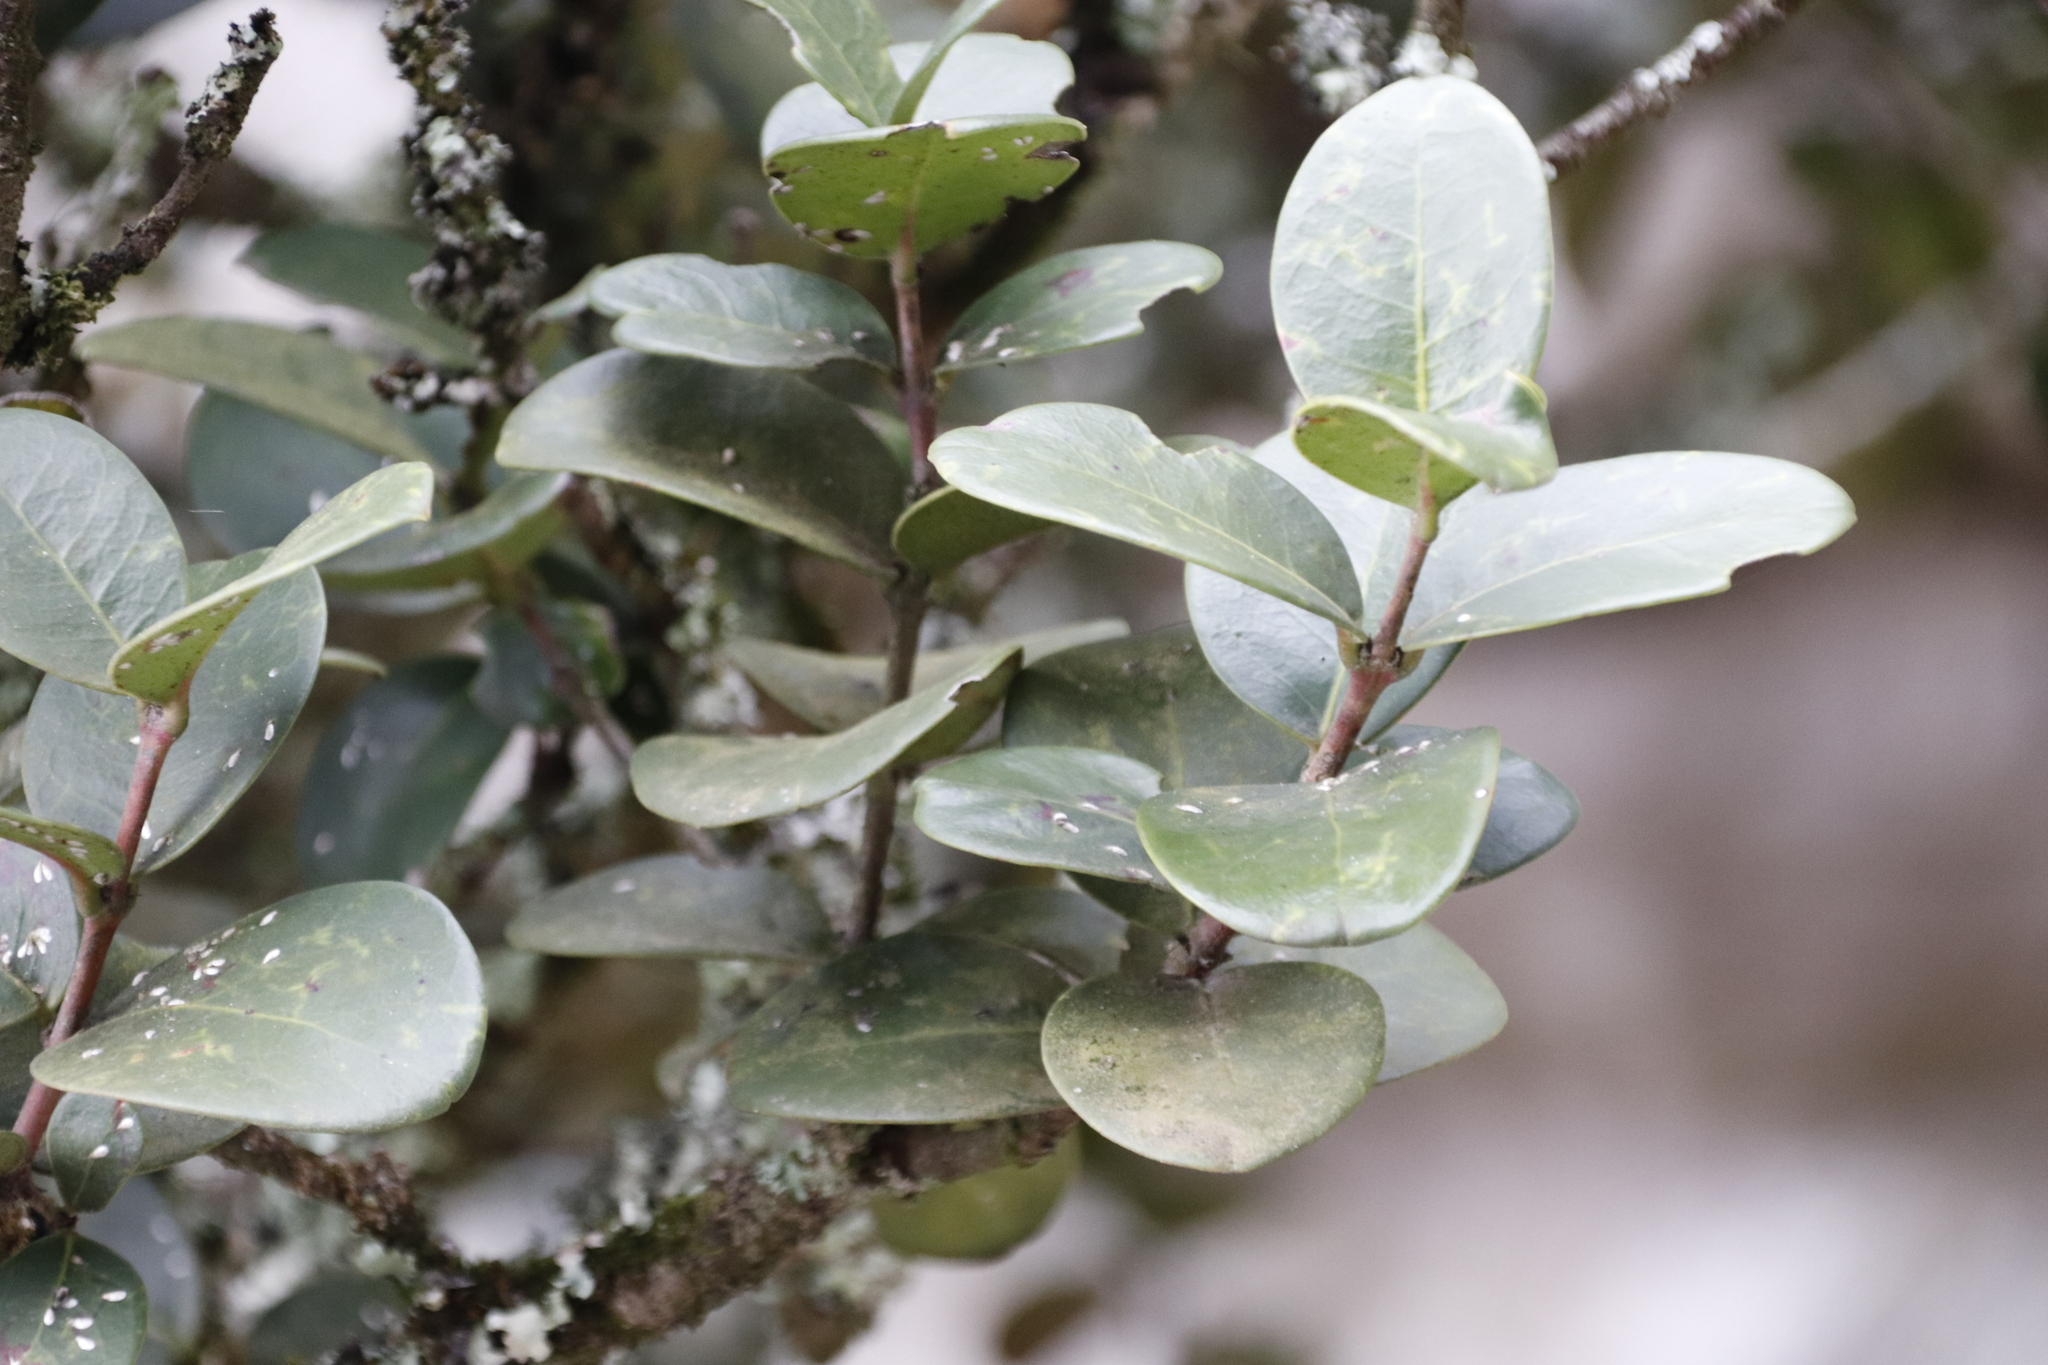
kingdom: Plantae
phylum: Tracheophyta
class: Magnoliopsida
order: Celastrales
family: Celastraceae
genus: Maurocenia
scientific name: Maurocenia frangula
